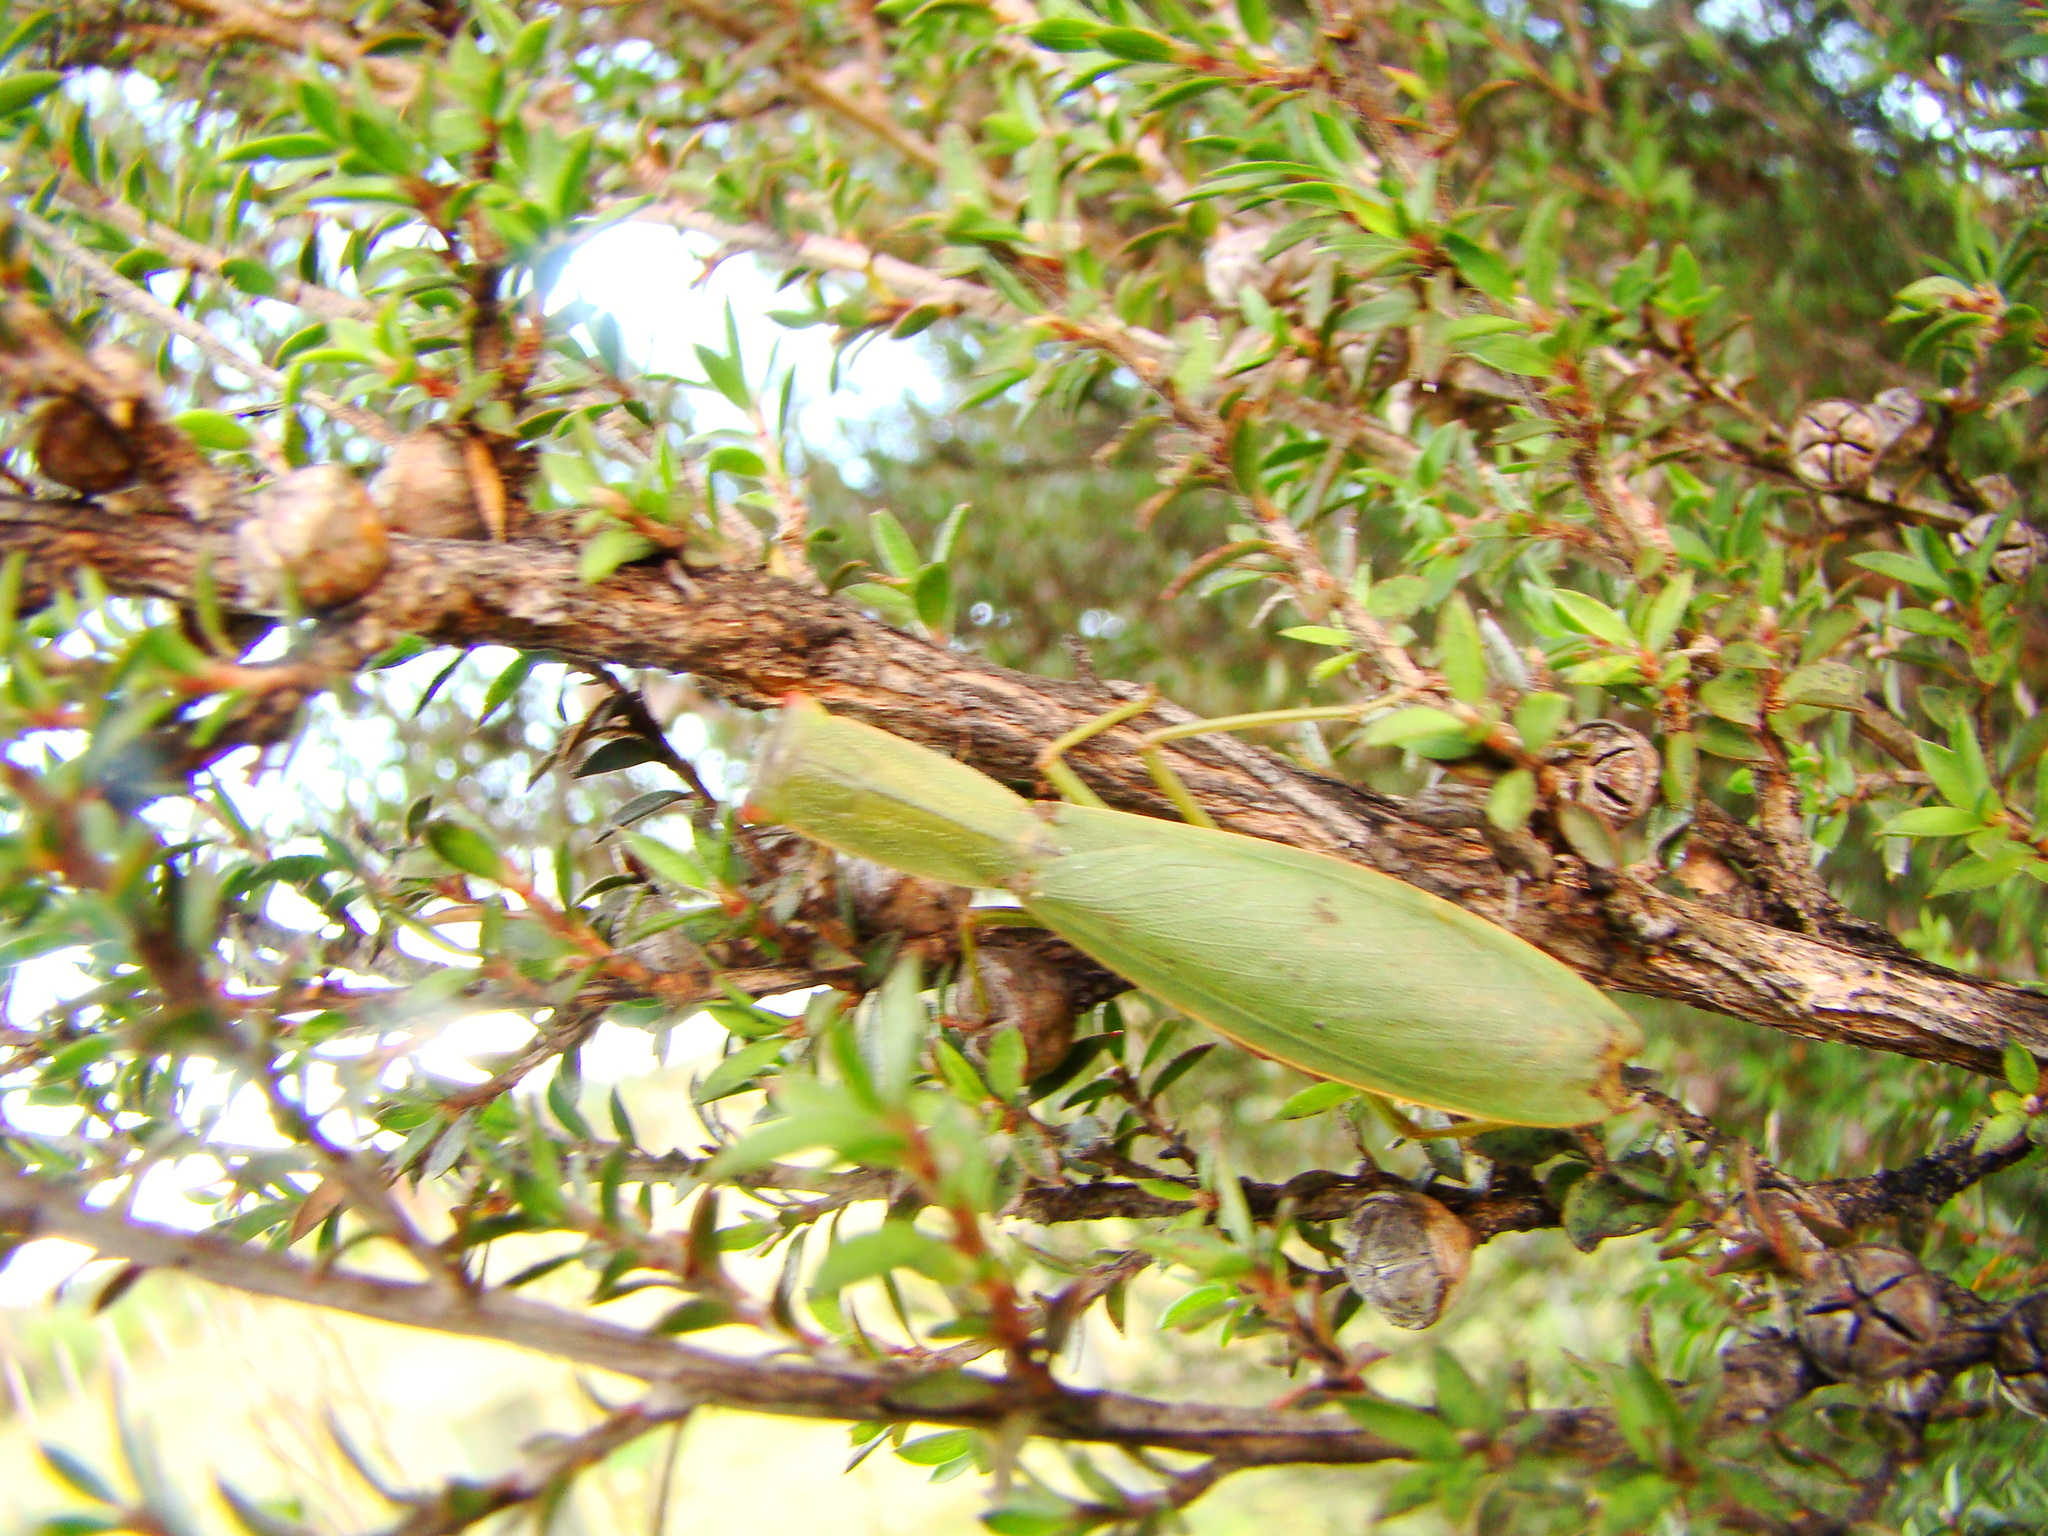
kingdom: Animalia
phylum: Arthropoda
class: Insecta
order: Mantodea
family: Mantidae
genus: Orthodera
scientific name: Orthodera novaezealandiae
